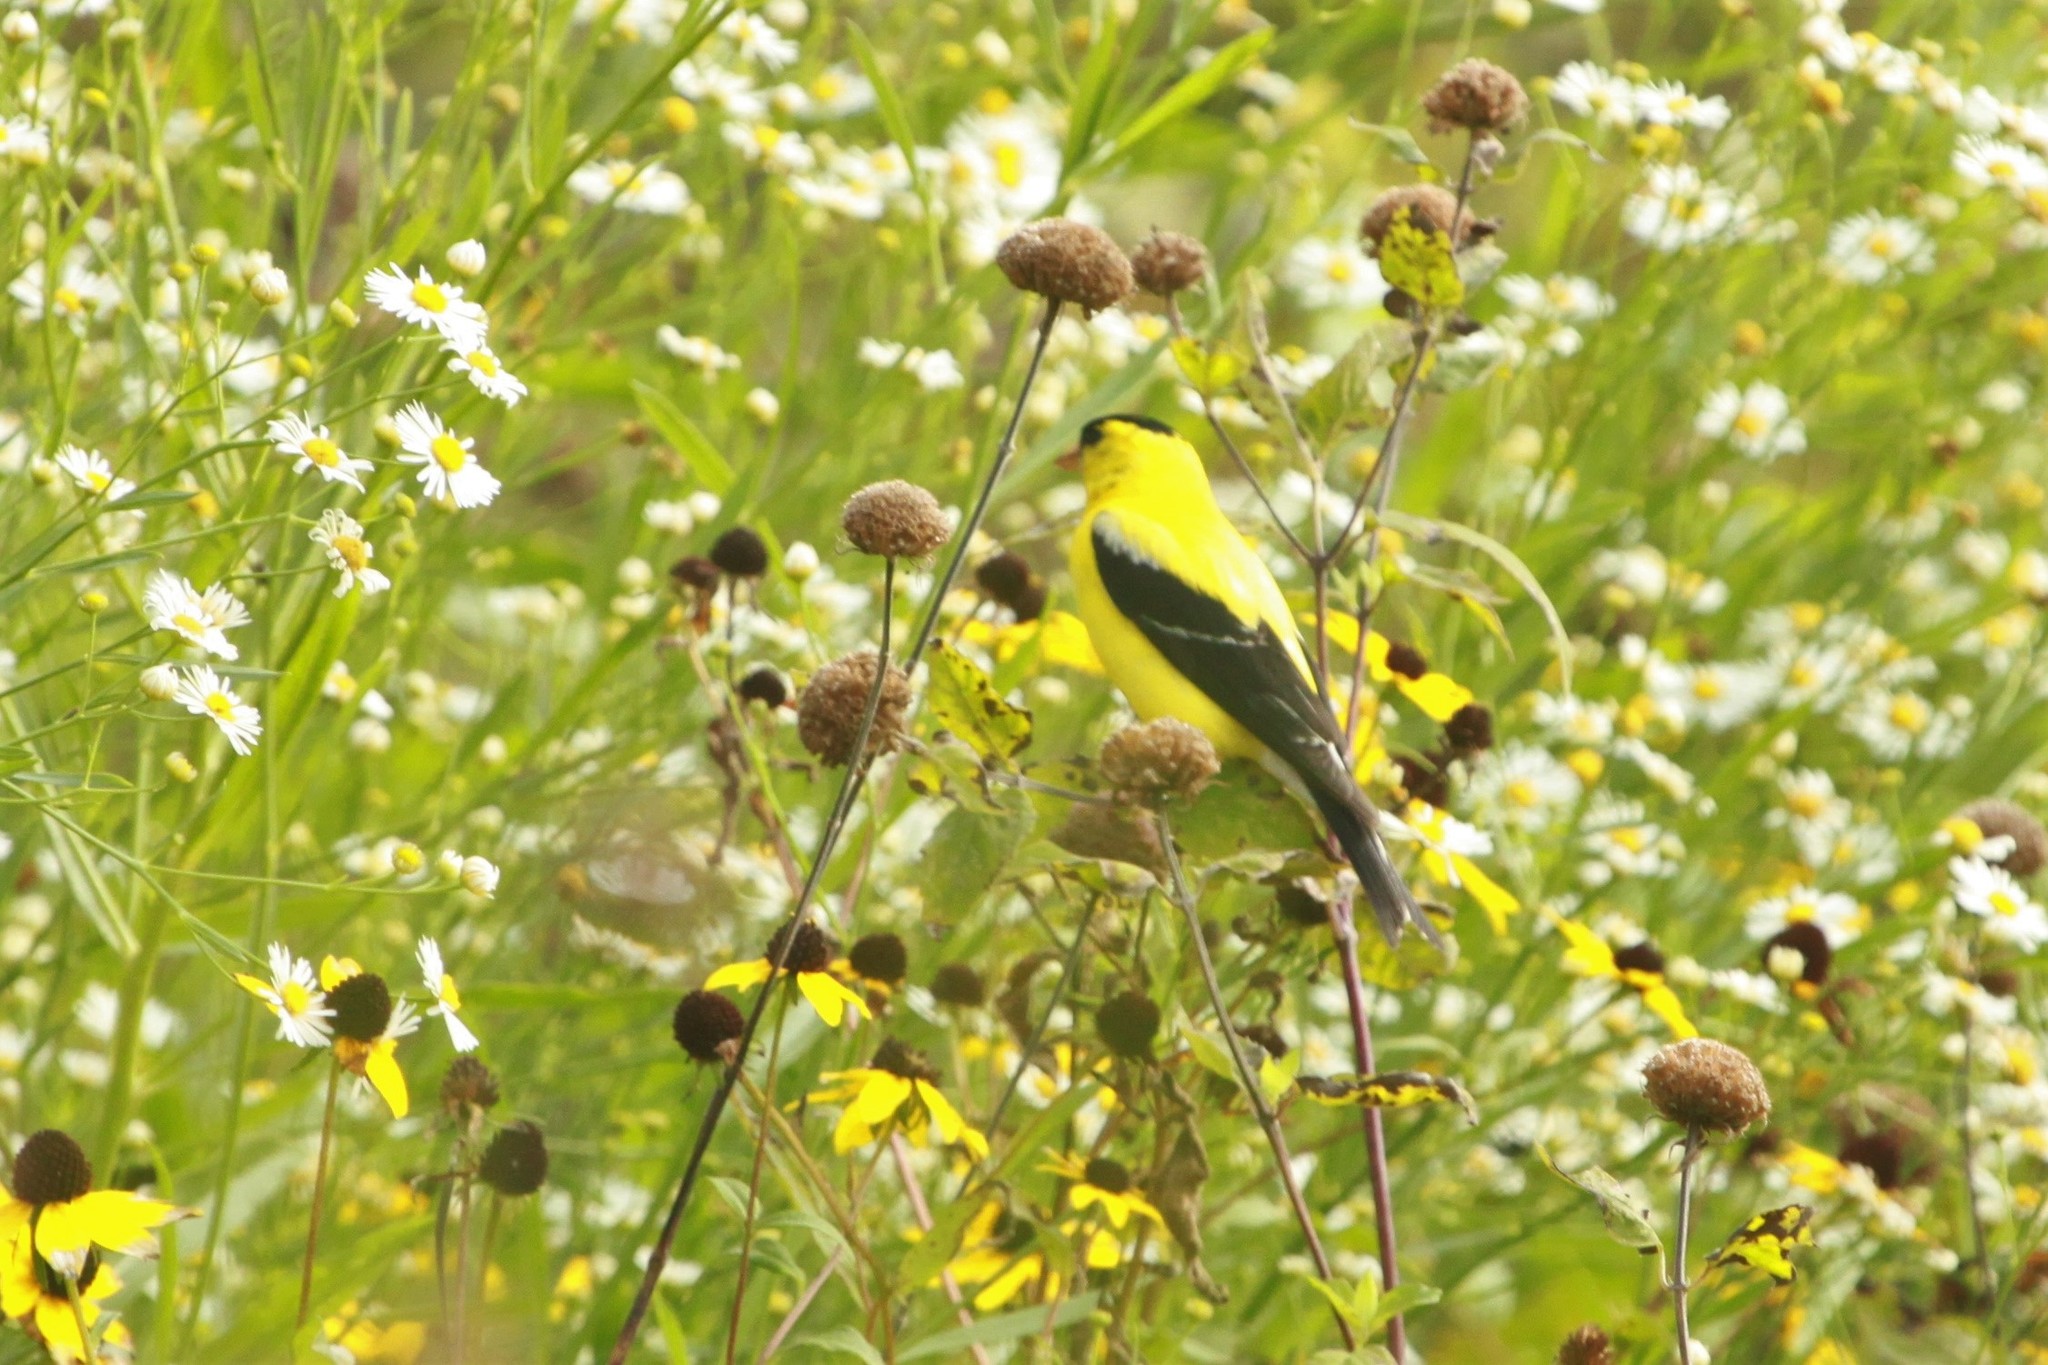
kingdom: Animalia
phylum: Chordata
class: Aves
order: Passeriformes
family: Fringillidae
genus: Spinus
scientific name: Spinus tristis
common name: American goldfinch
